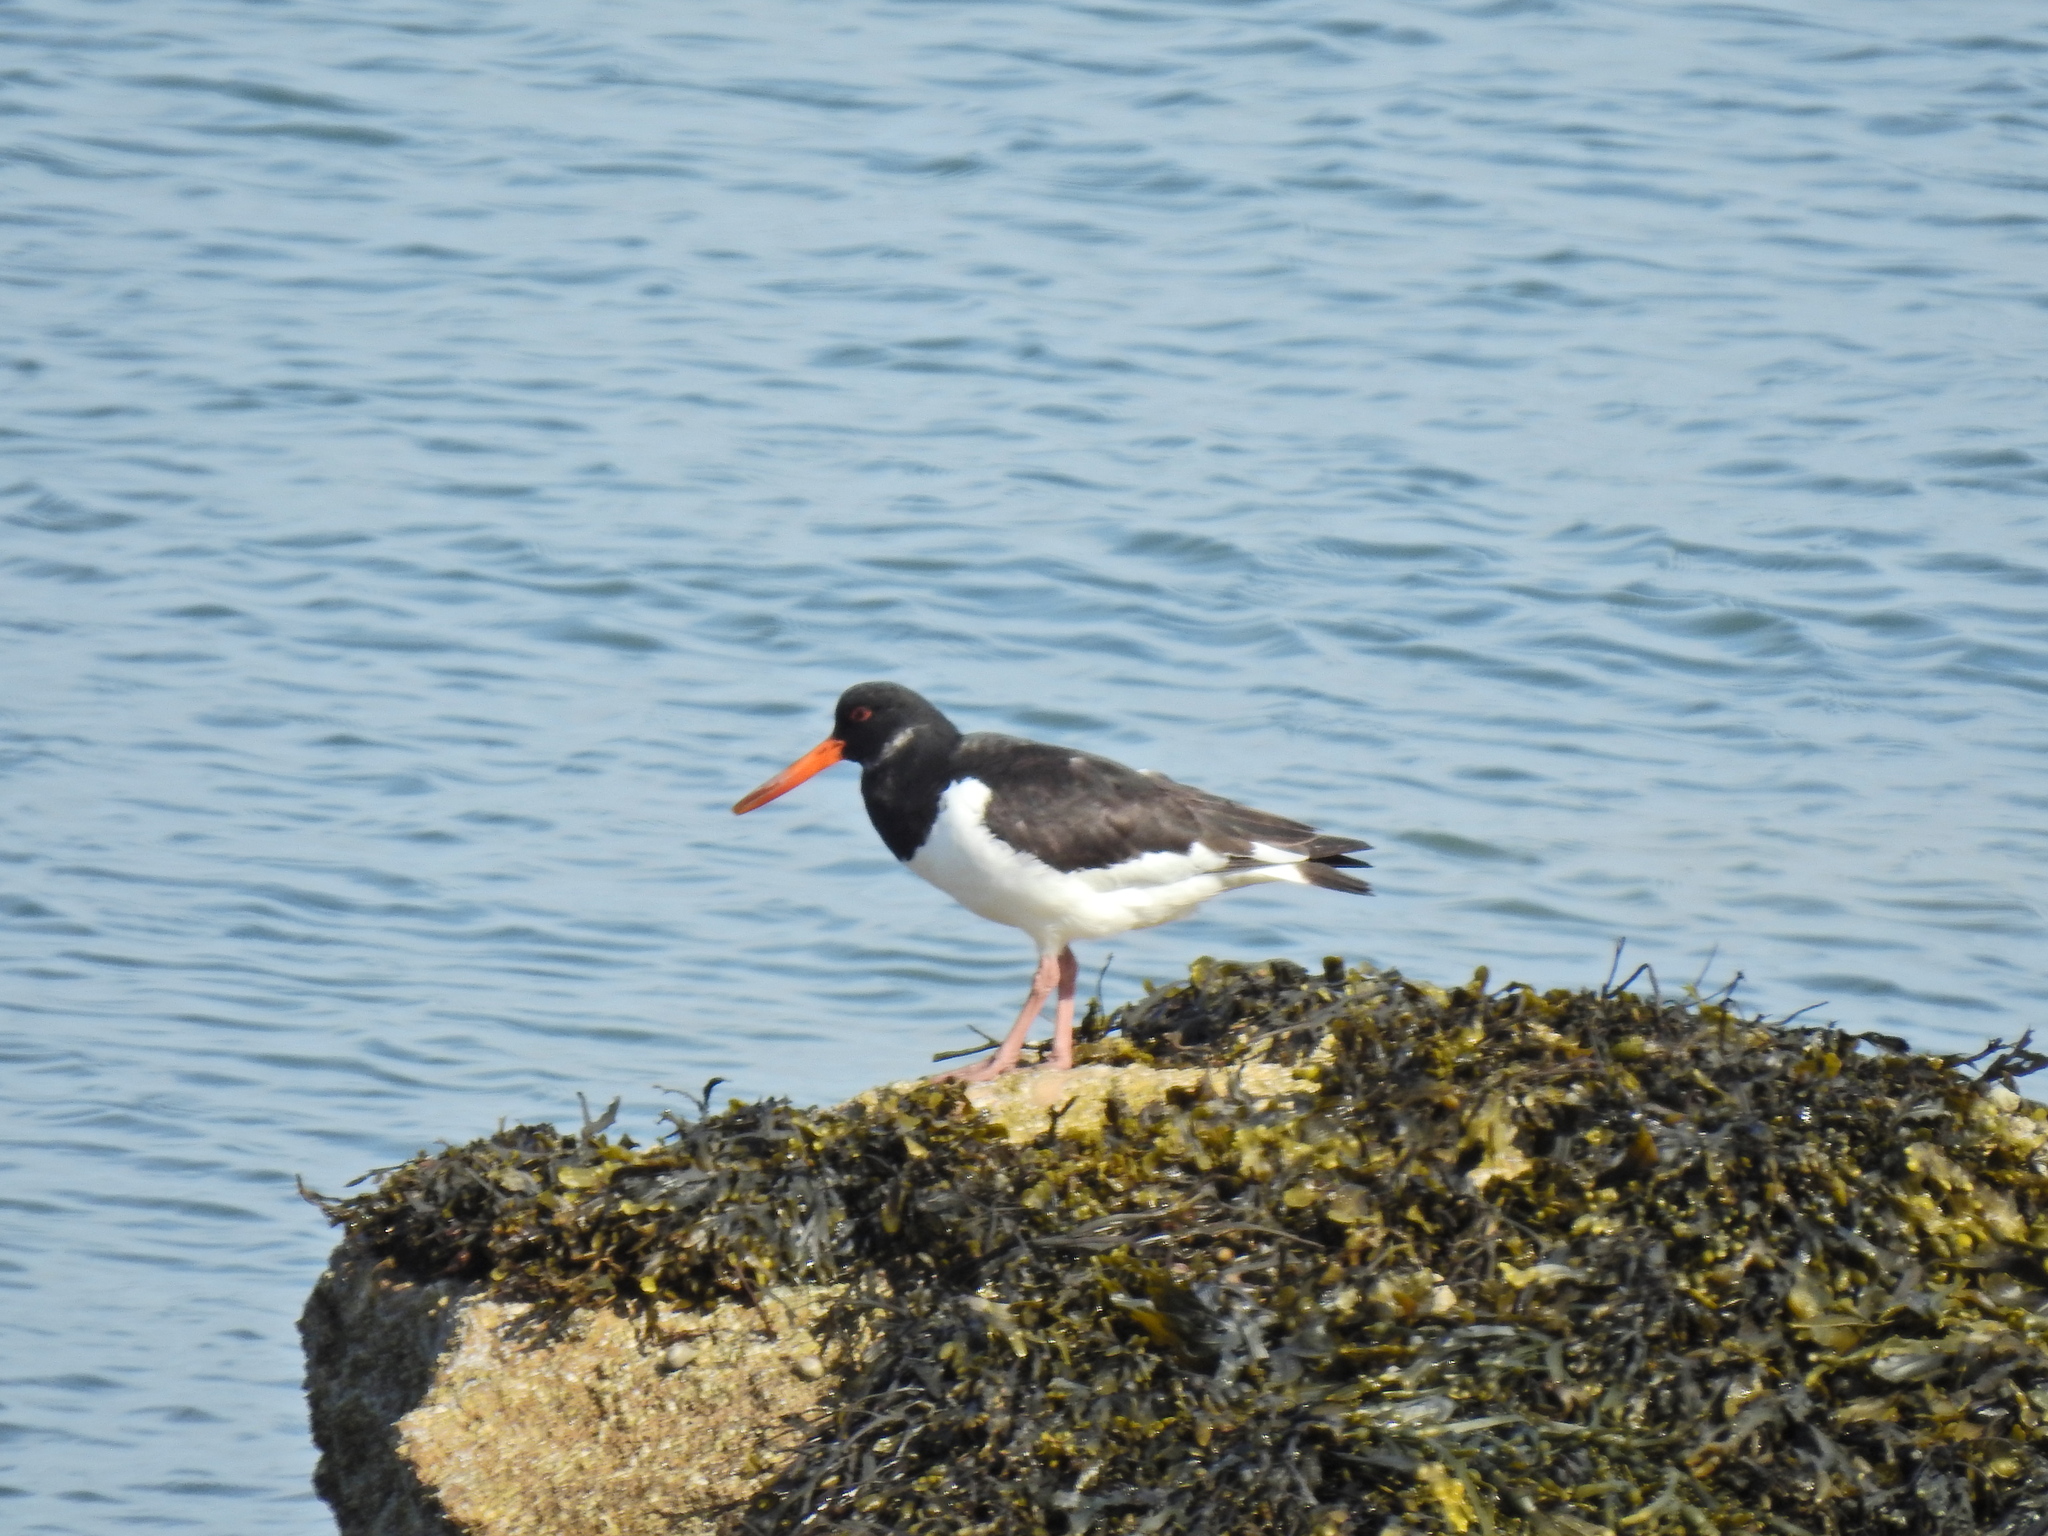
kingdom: Animalia
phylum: Chordata
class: Aves
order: Charadriiformes
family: Haematopodidae
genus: Haematopus
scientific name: Haematopus ostralegus
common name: Eurasian oystercatcher
